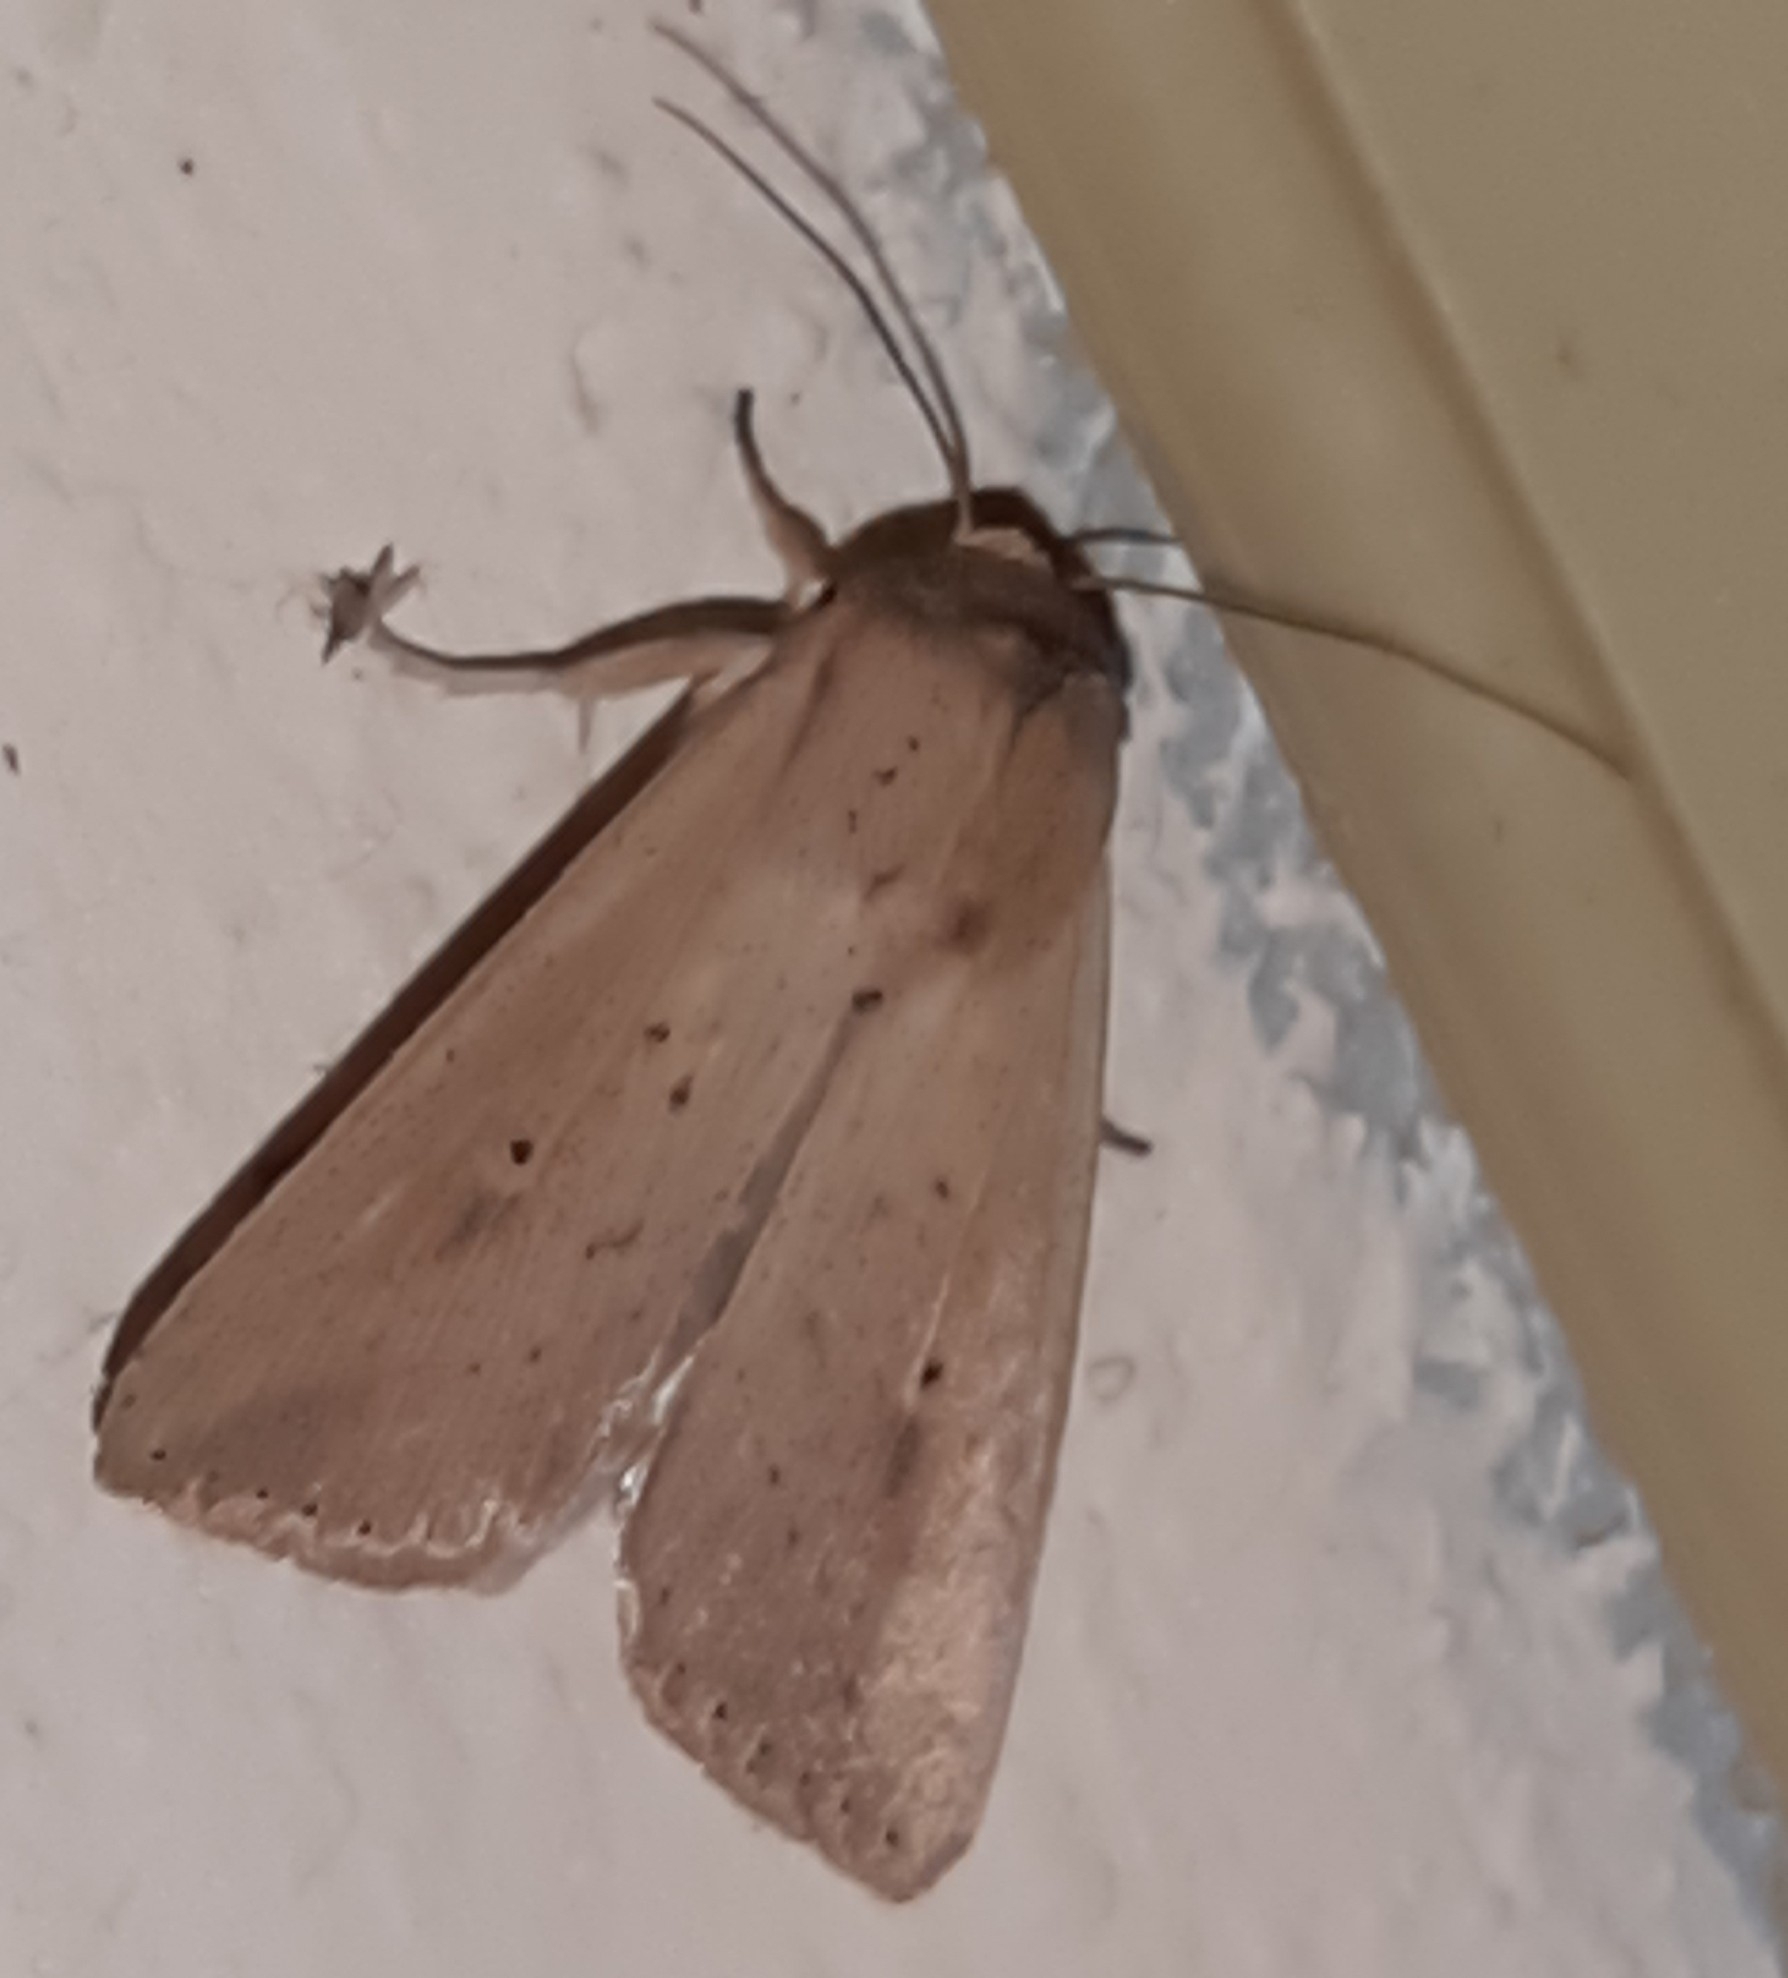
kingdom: Animalia
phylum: Arthropoda
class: Insecta
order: Lepidoptera
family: Noctuidae
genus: Leucania
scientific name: Leucania inconspicua
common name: Cutworm moth
